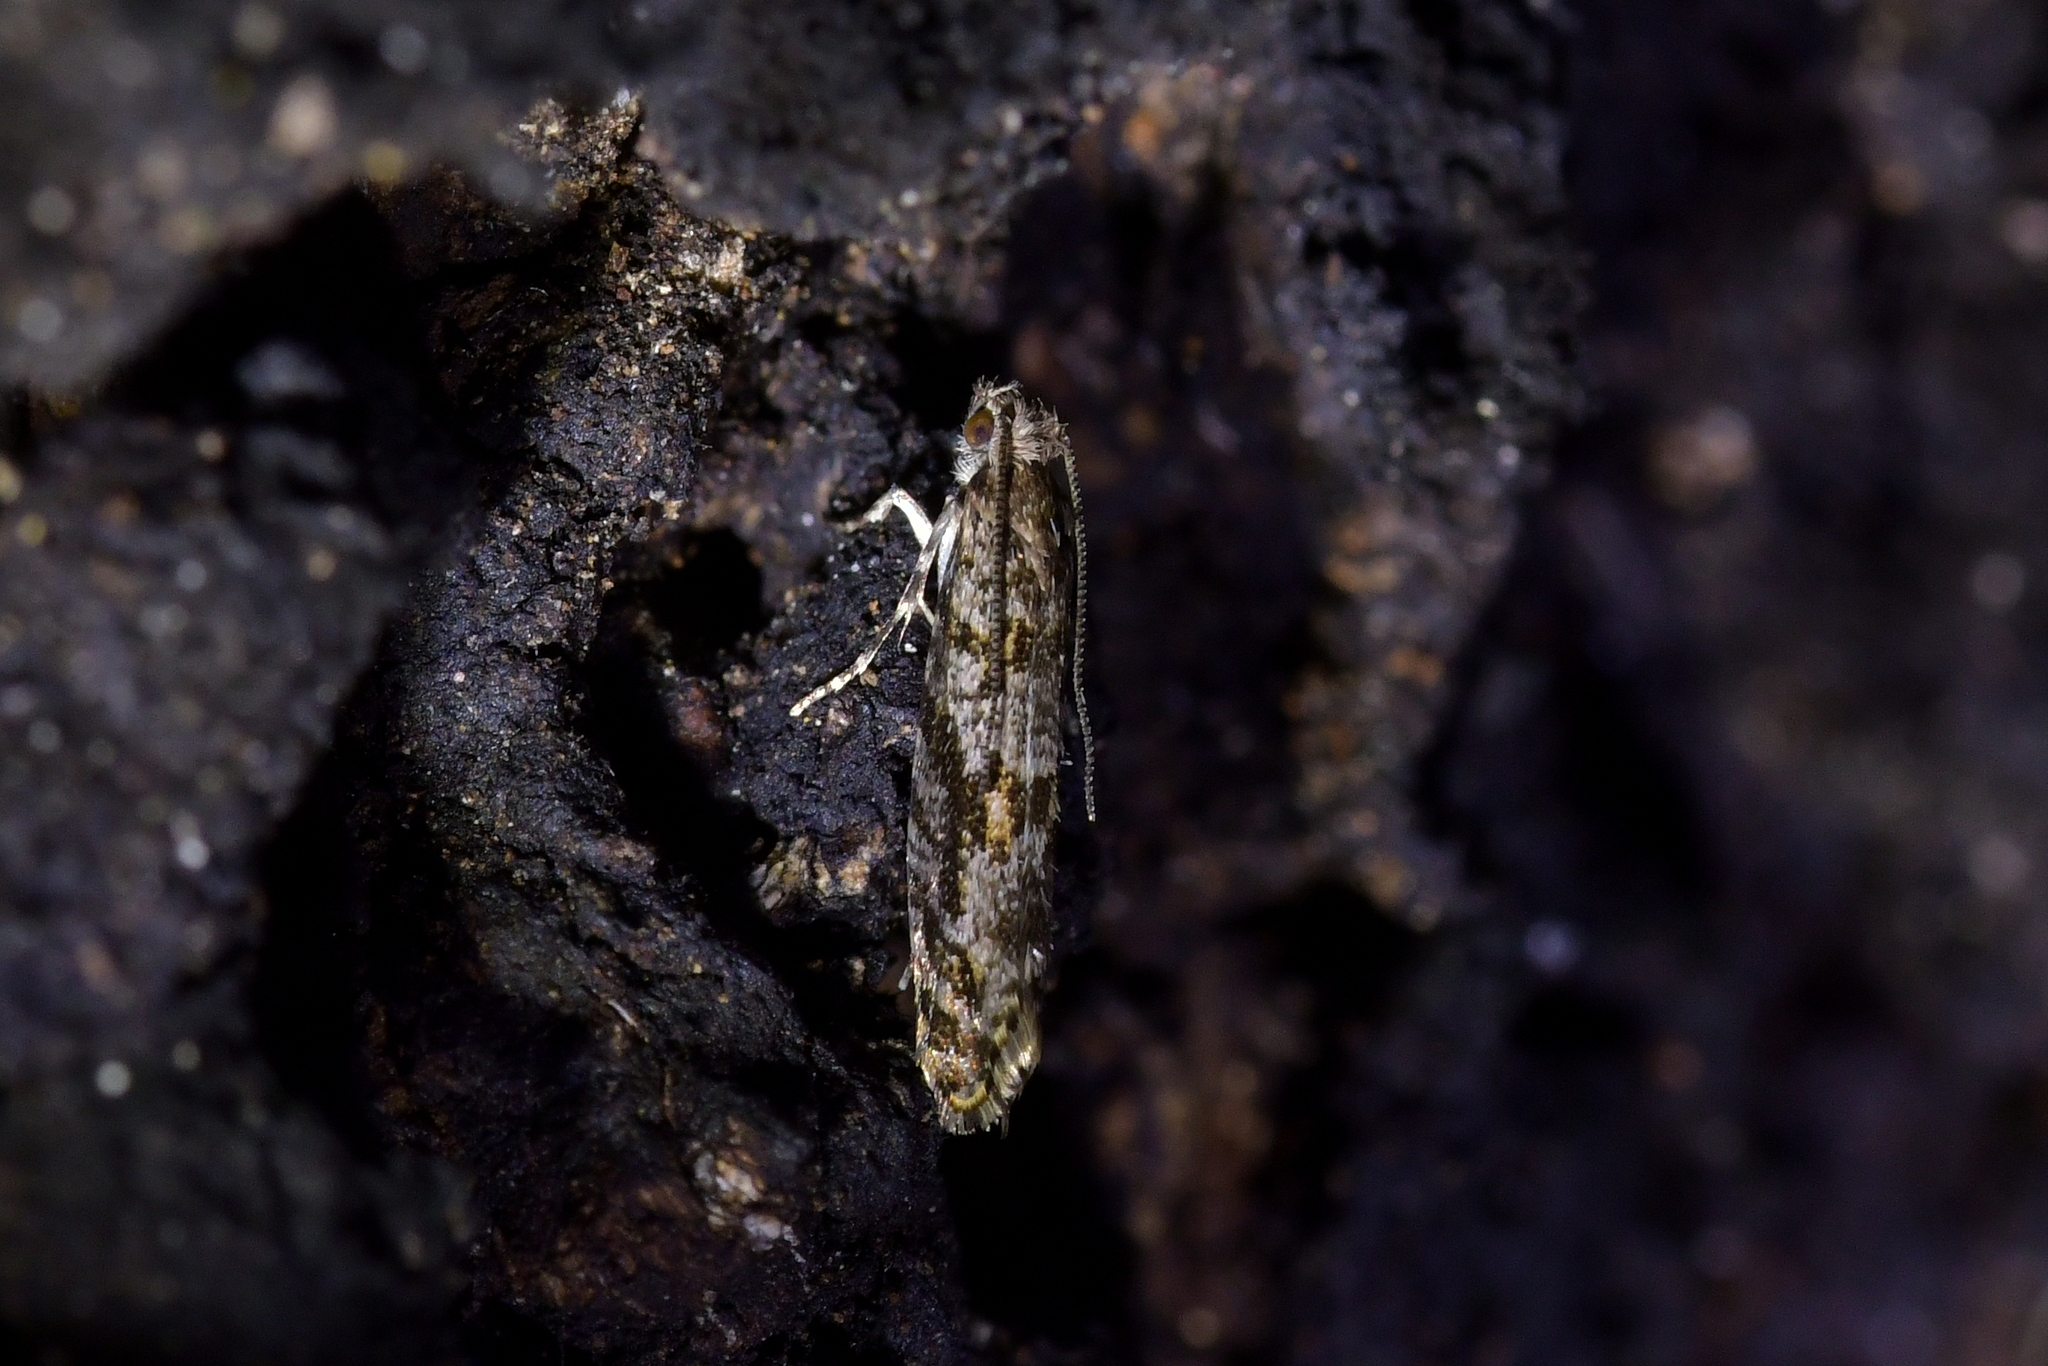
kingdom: Animalia
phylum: Arthropoda
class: Insecta
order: Lepidoptera
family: Tineidae
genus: Archyala
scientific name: Archyala pentazyga
